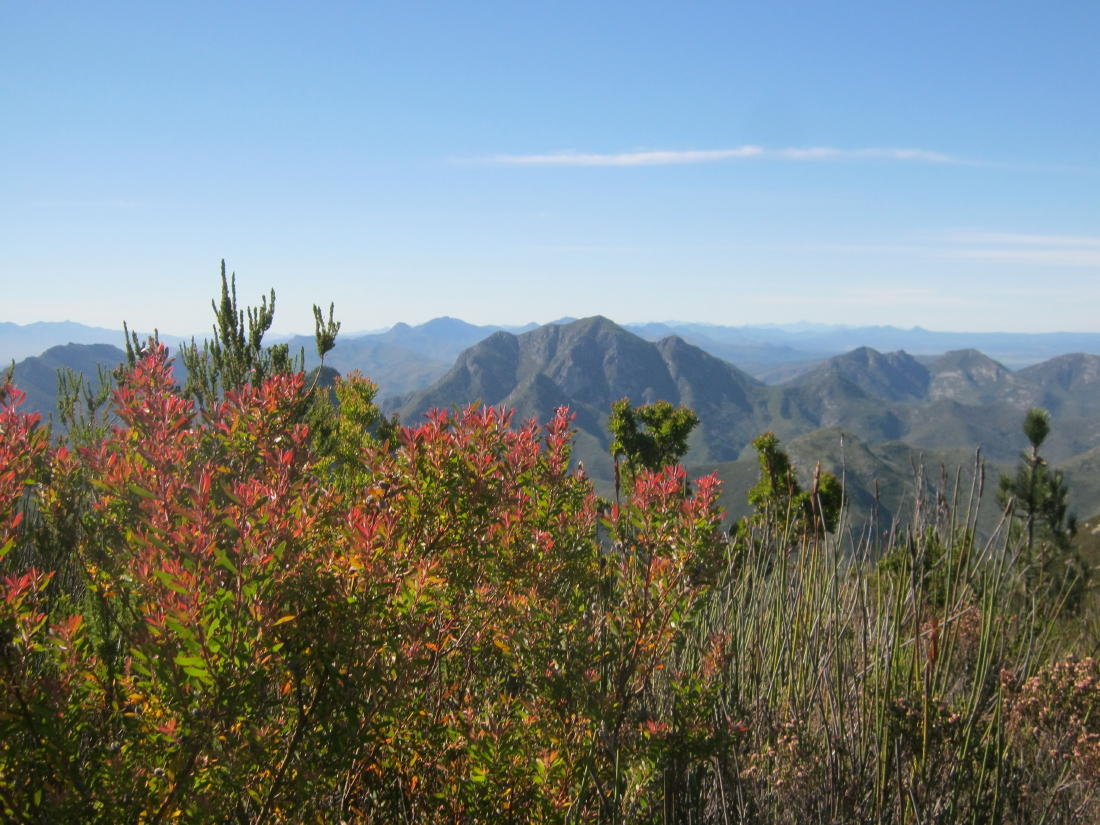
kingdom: Plantae
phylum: Tracheophyta
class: Magnoliopsida
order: Proteales
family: Proteaceae
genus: Leucadendron
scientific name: Leucadendron conicum
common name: Garden route conebush
